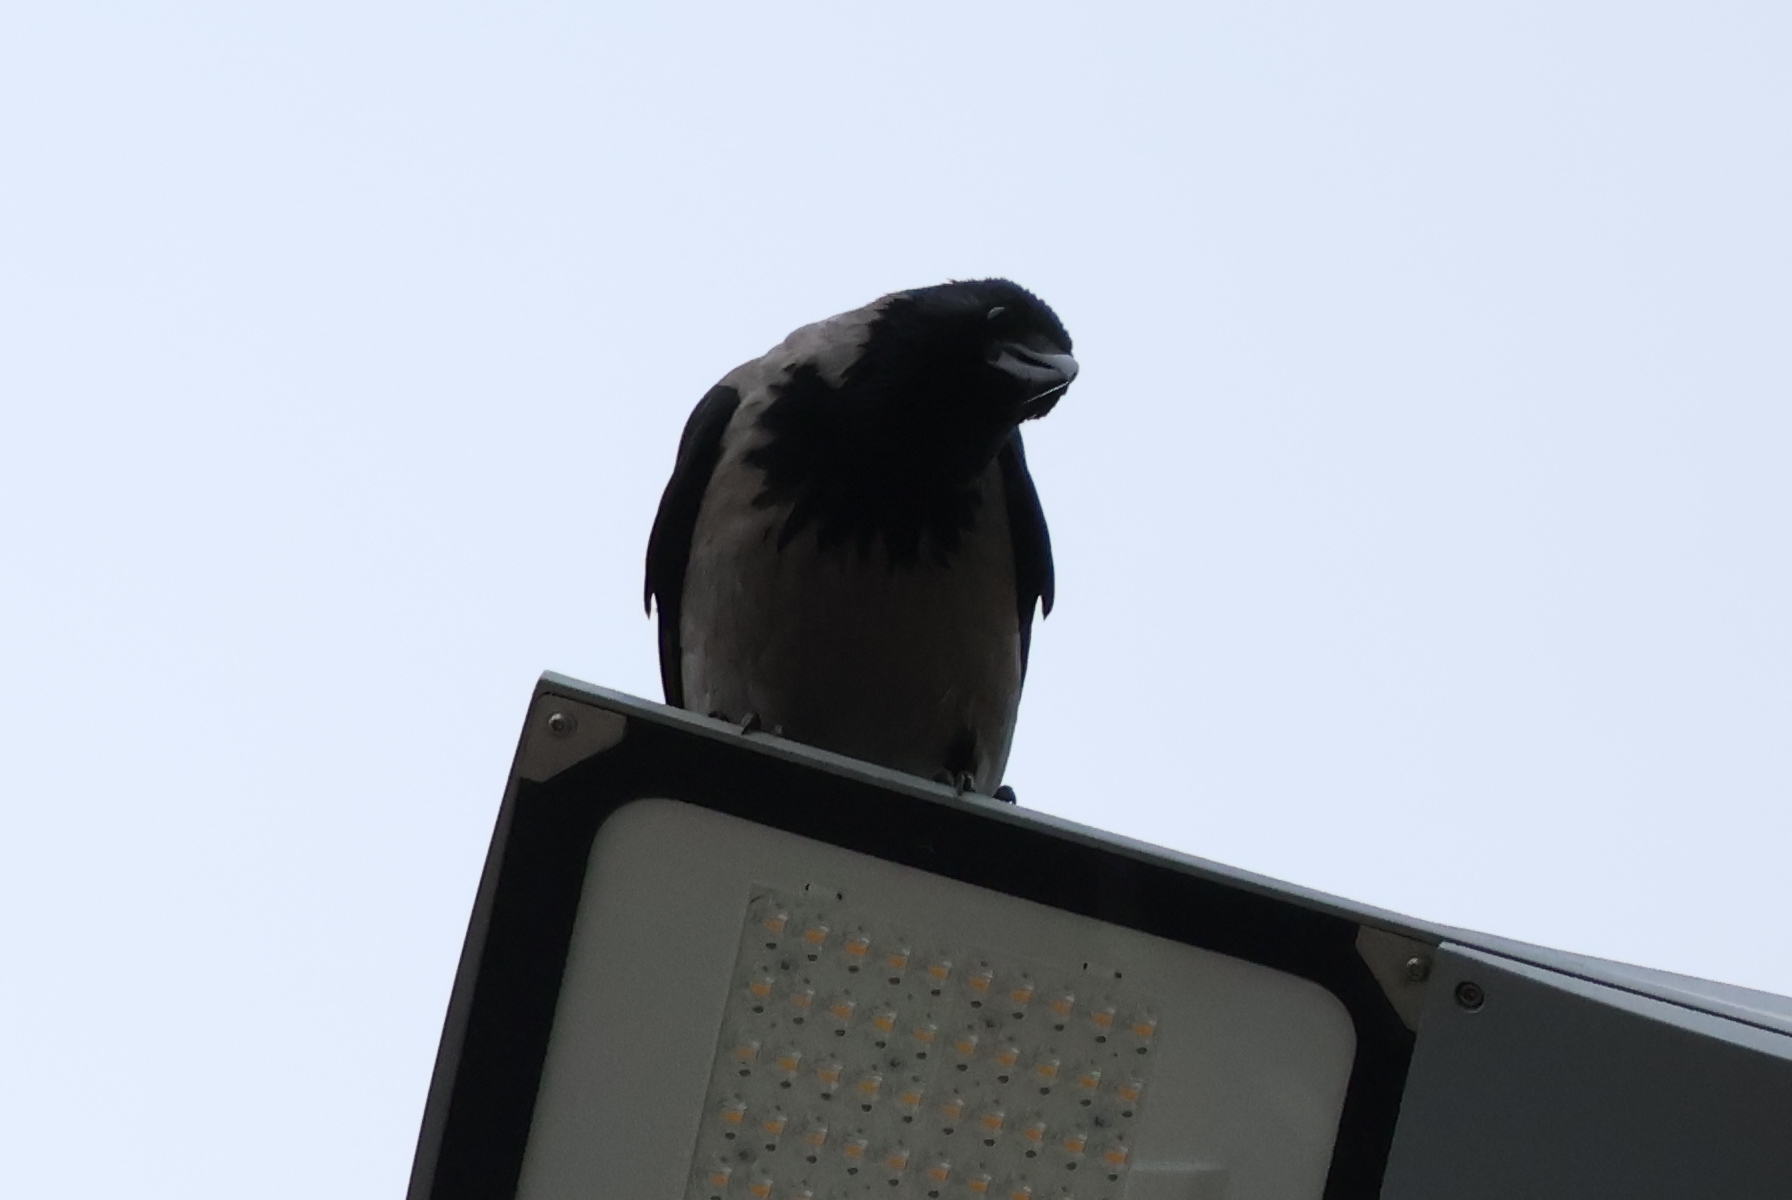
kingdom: Animalia
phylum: Chordata
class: Aves
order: Passeriformes
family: Corvidae
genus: Corvus
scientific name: Corvus cornix
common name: Hooded crow
